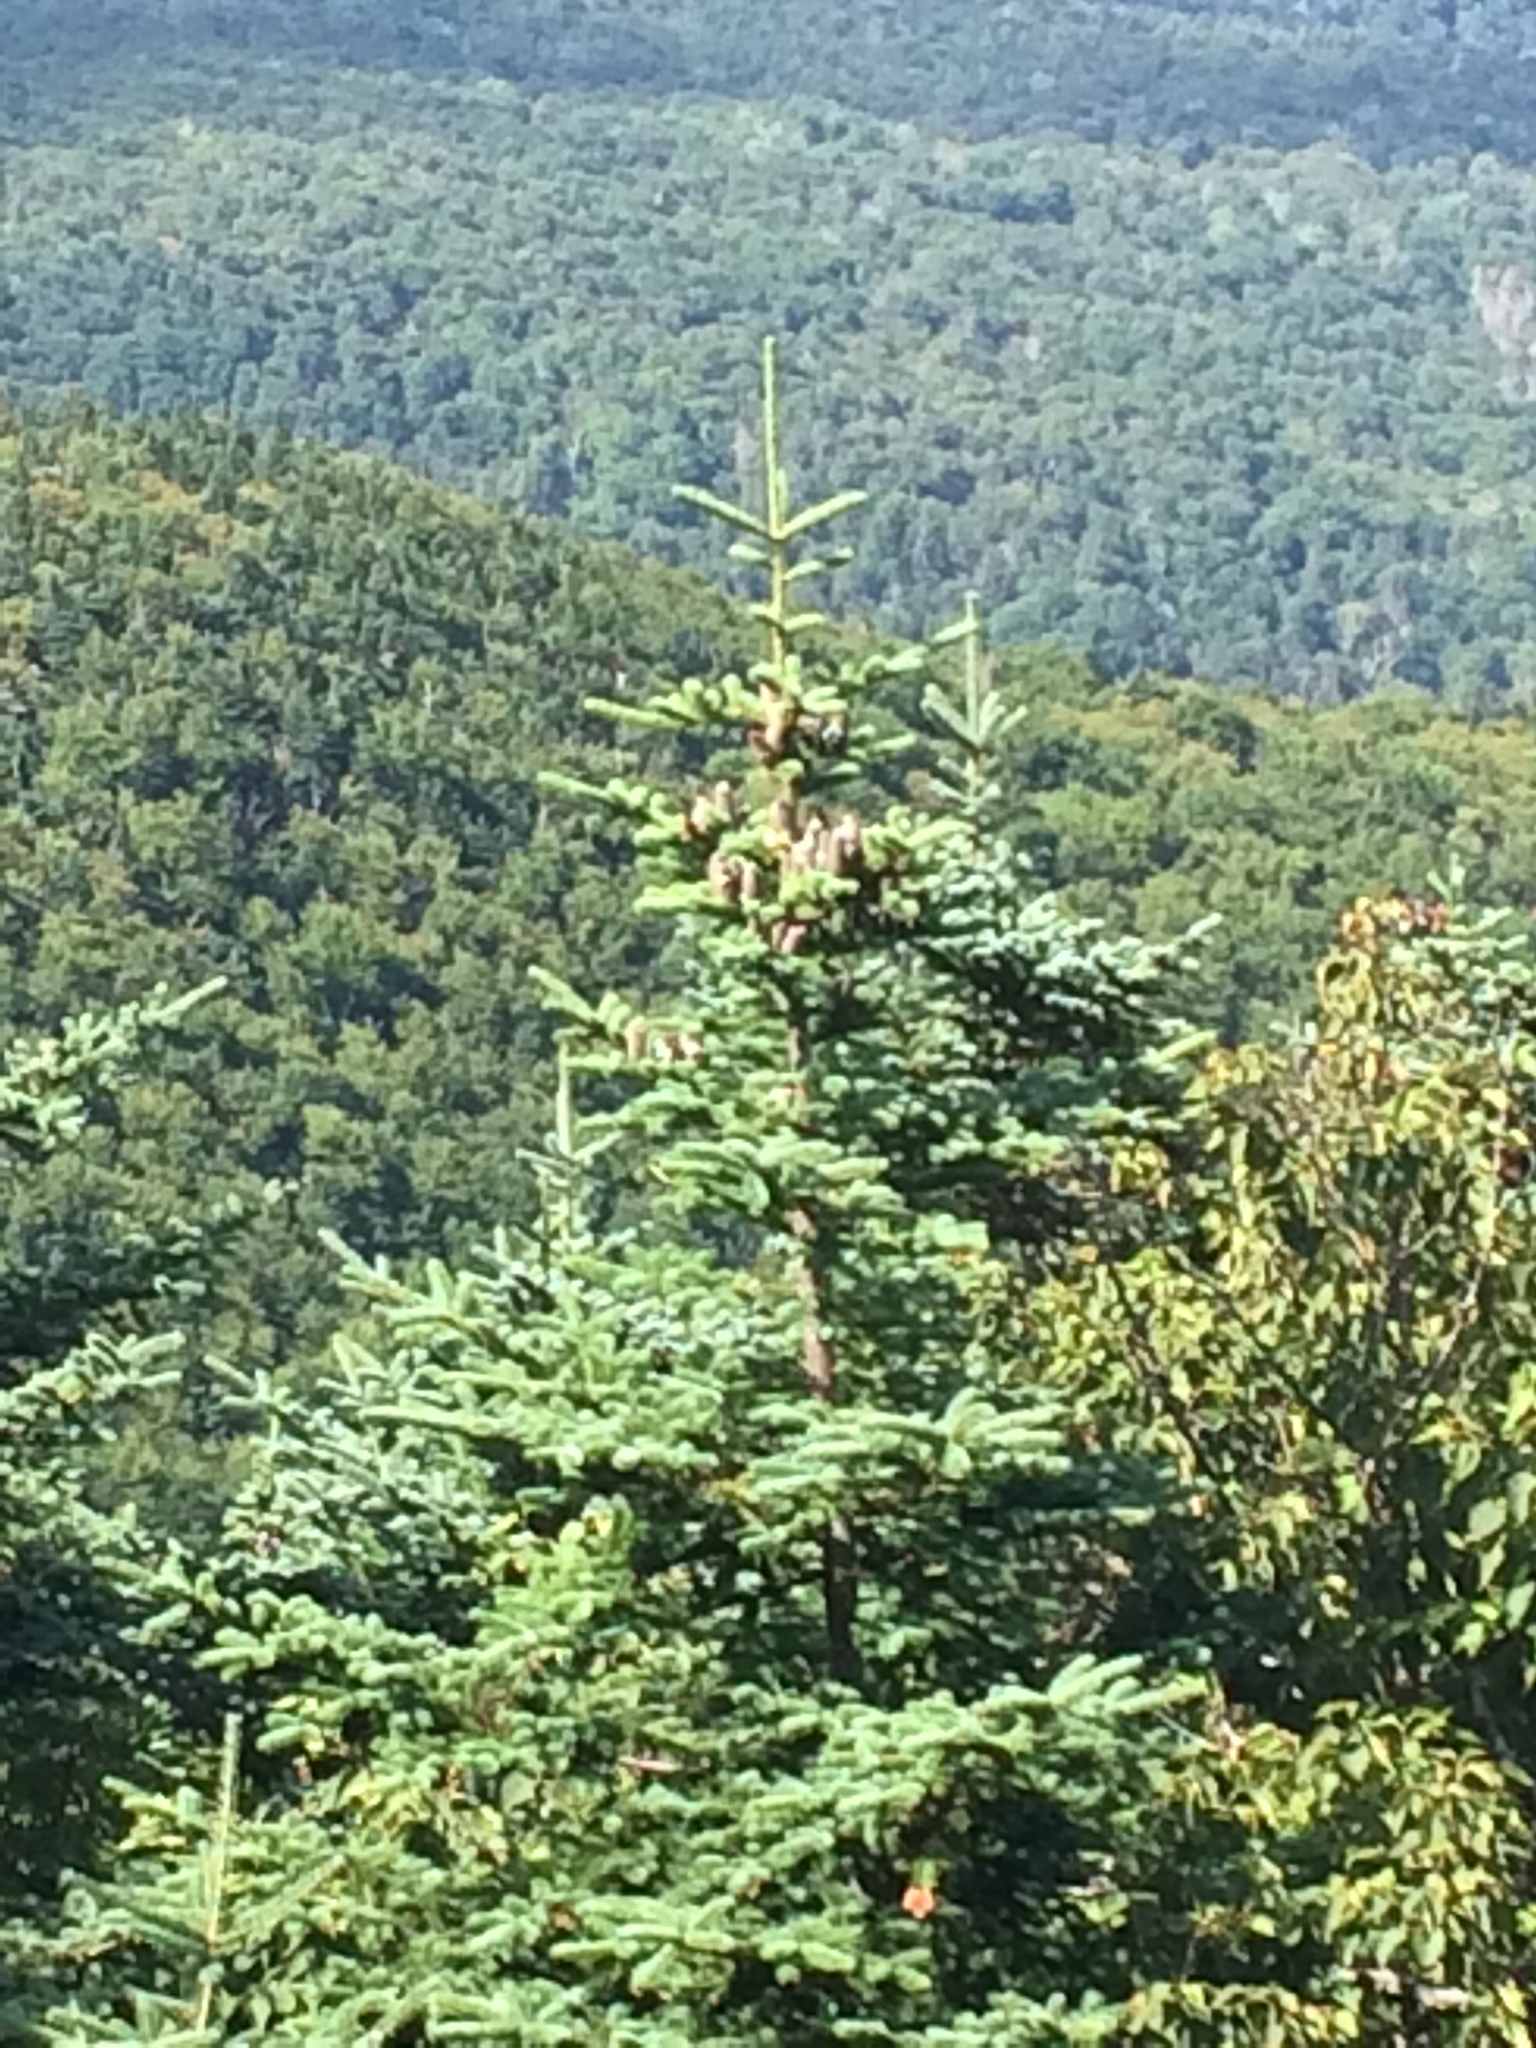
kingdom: Plantae
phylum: Tracheophyta
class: Pinopsida
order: Pinales
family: Pinaceae
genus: Abies
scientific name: Abies balsamea
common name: Balsam fir
